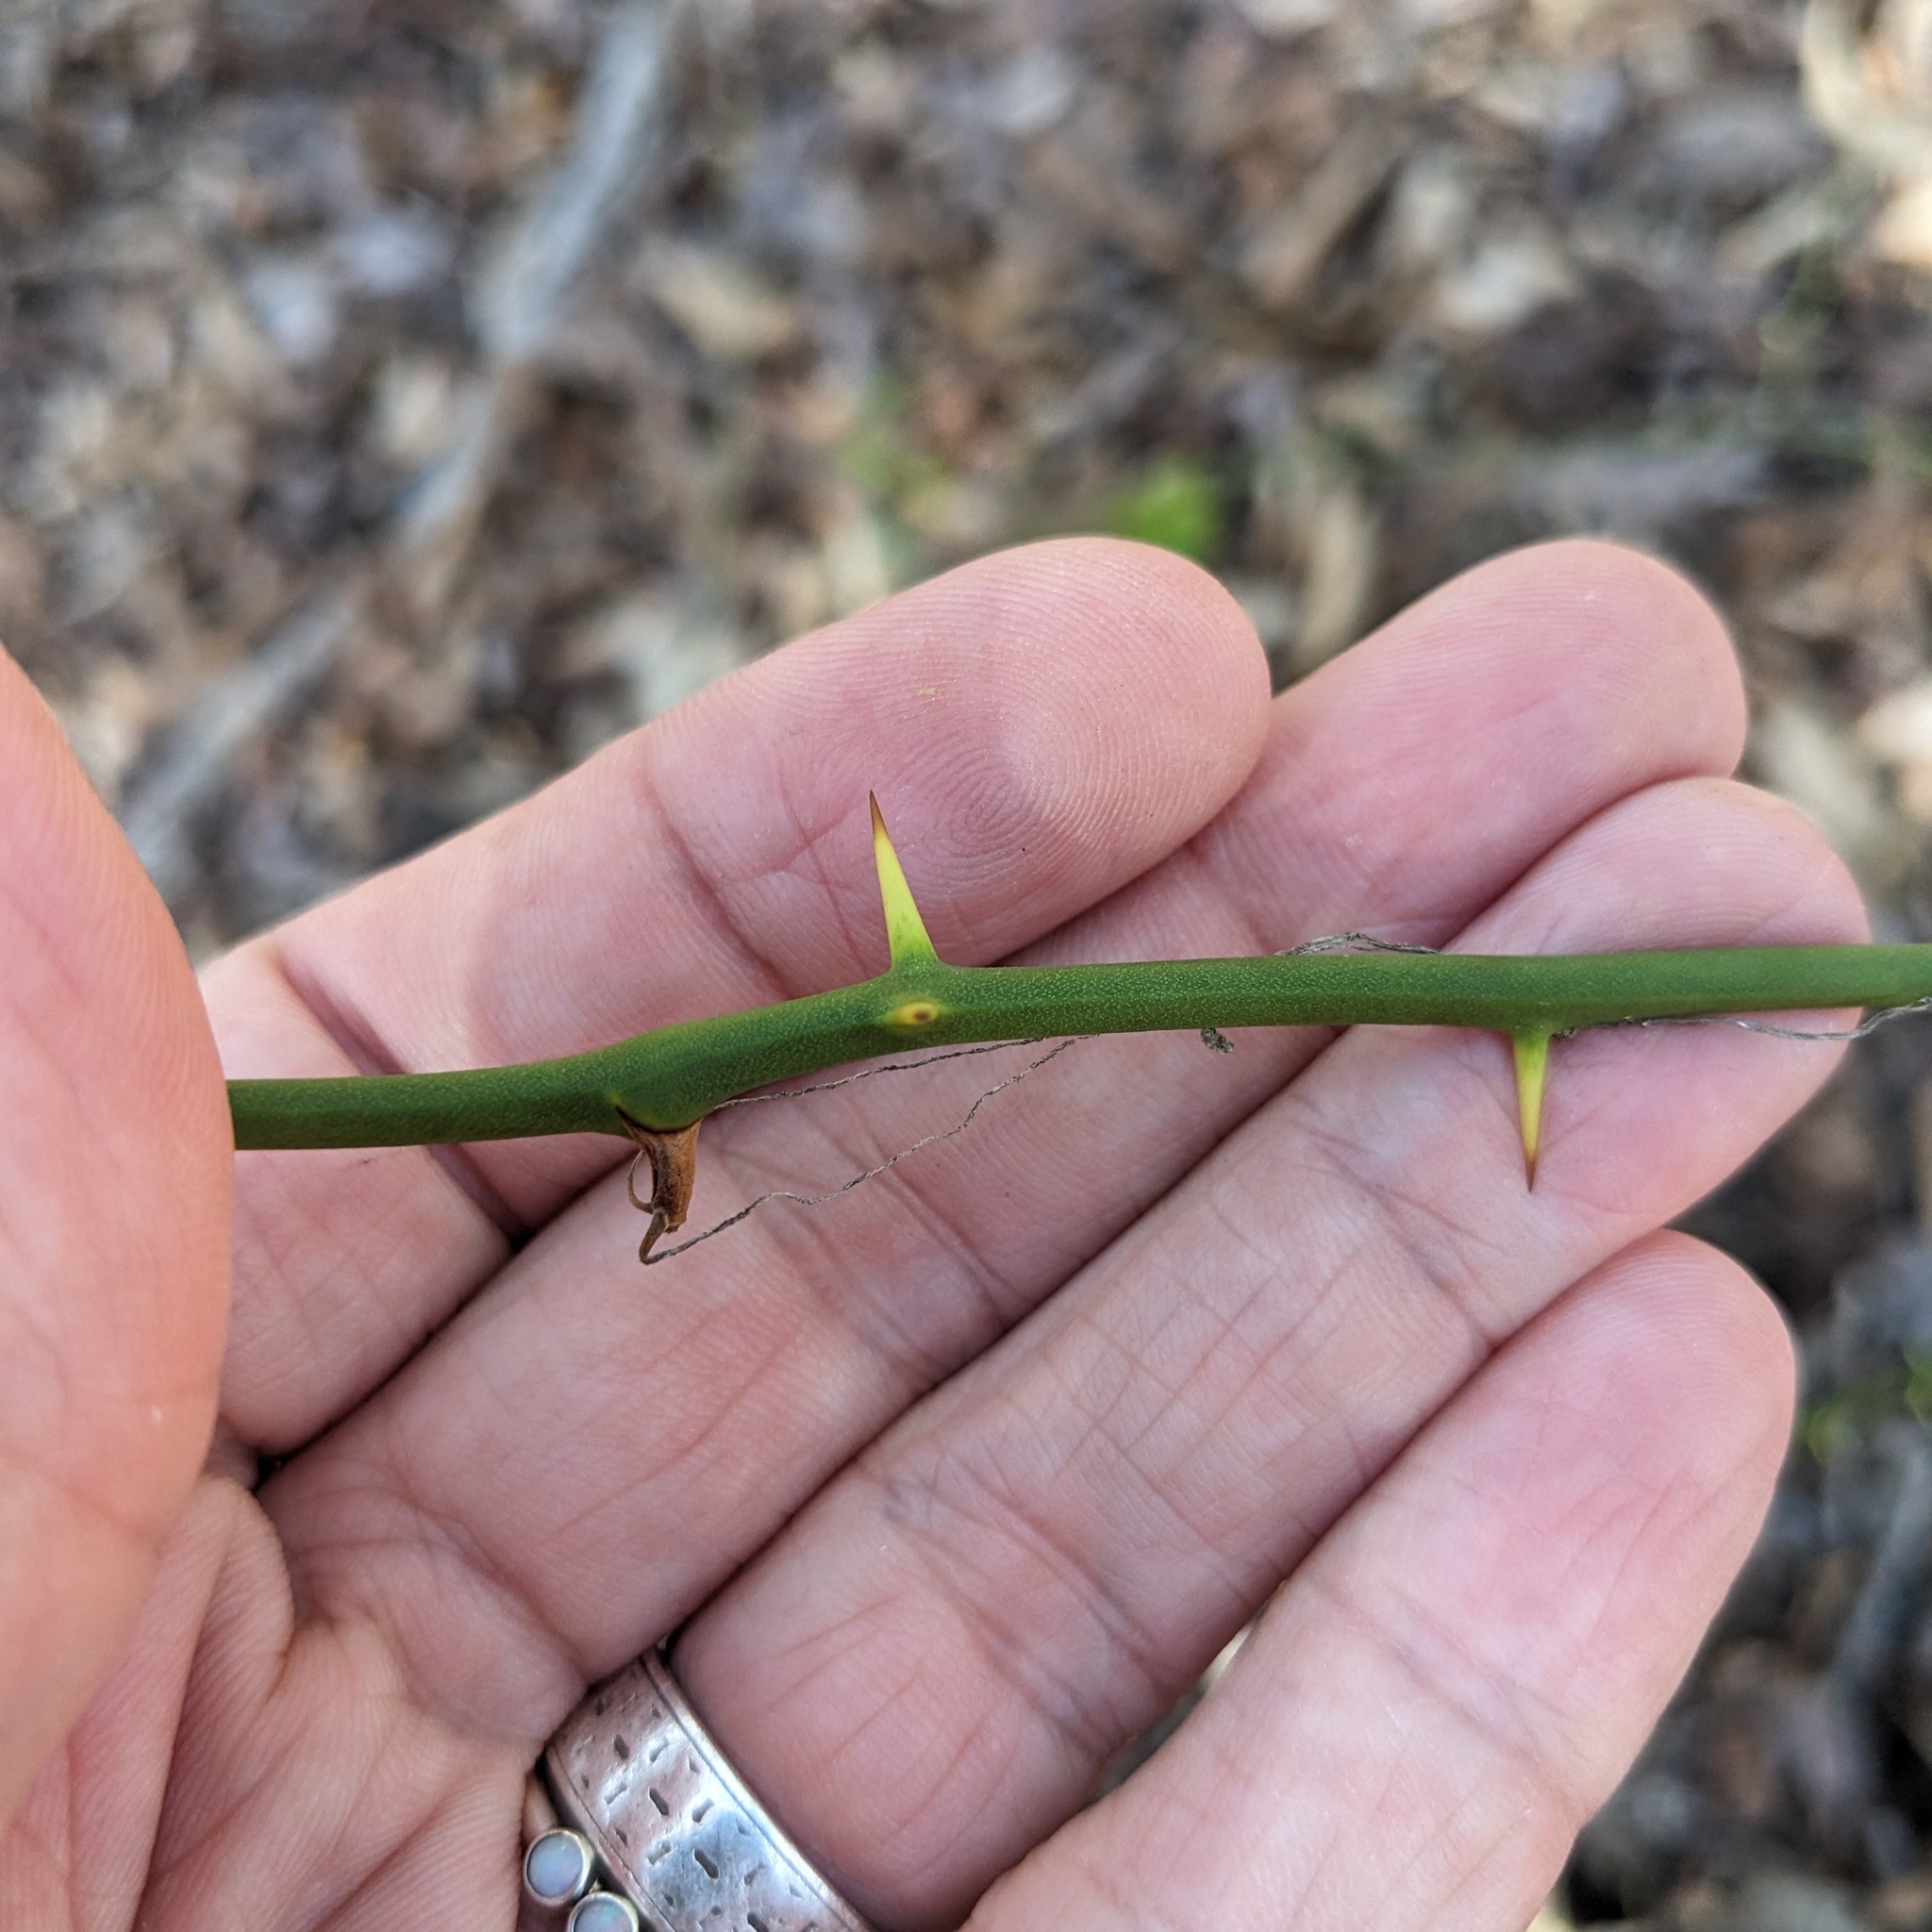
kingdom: Plantae
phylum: Tracheophyta
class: Liliopsida
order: Liliales
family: Smilacaceae
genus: Smilax
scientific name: Smilax rotundifolia
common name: Bullbriar
